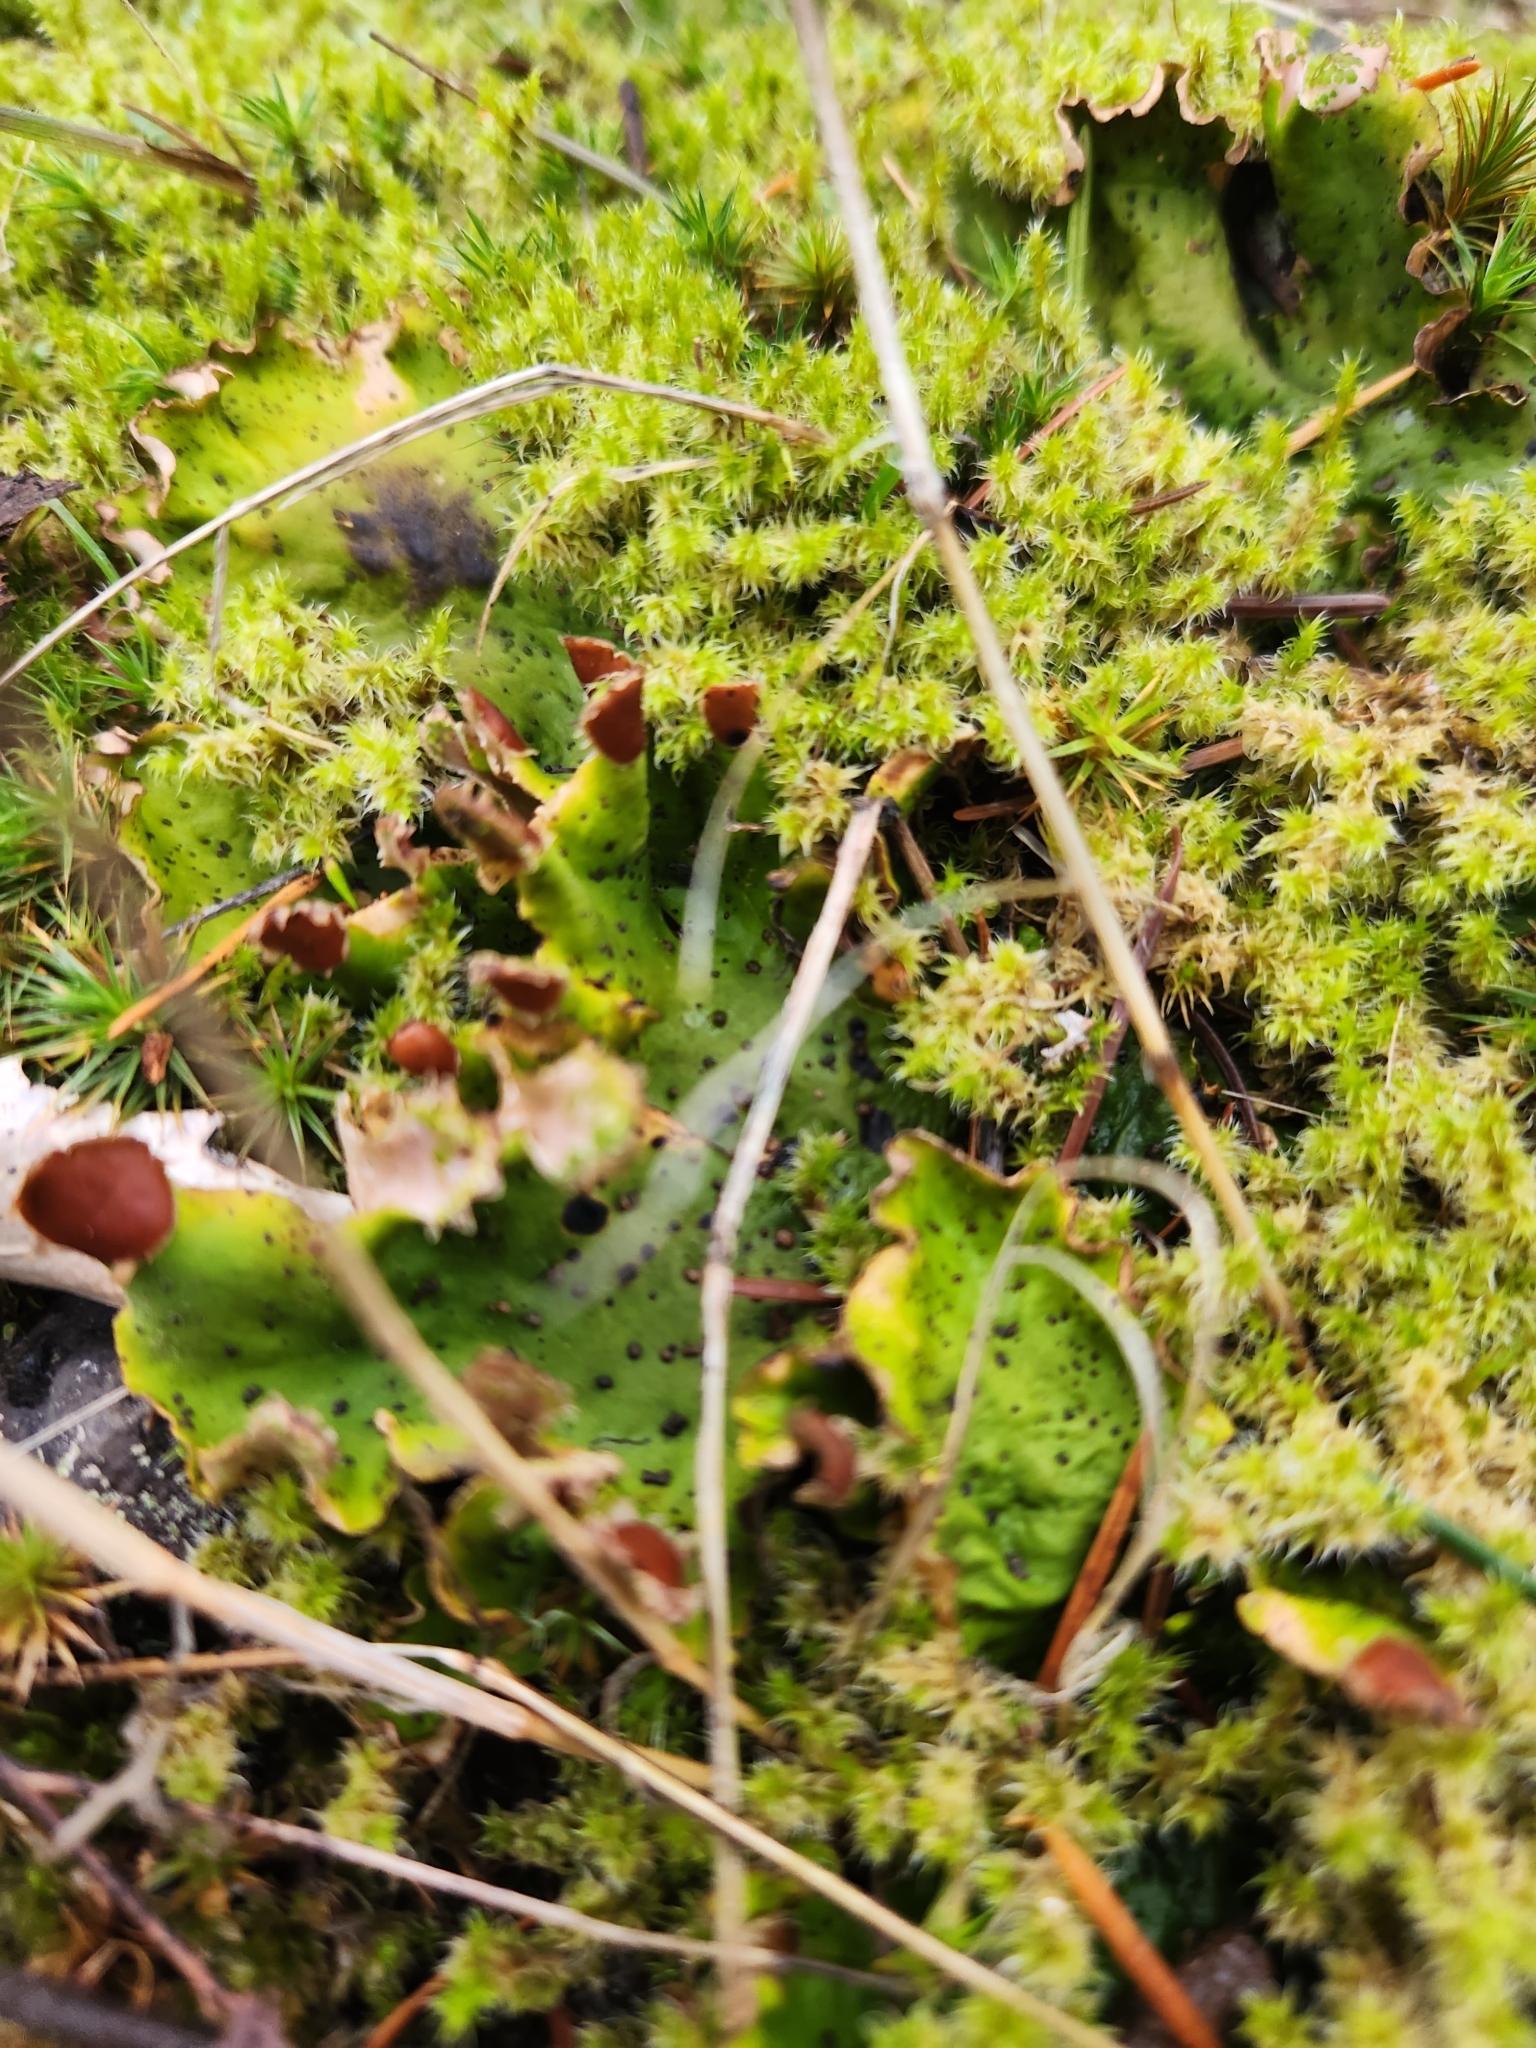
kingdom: Fungi
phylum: Ascomycota
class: Lecanoromycetes
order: Peltigerales
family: Peltigeraceae
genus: Peltigera
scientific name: Peltigera aphthosa
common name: Common freckle pelt lichen
